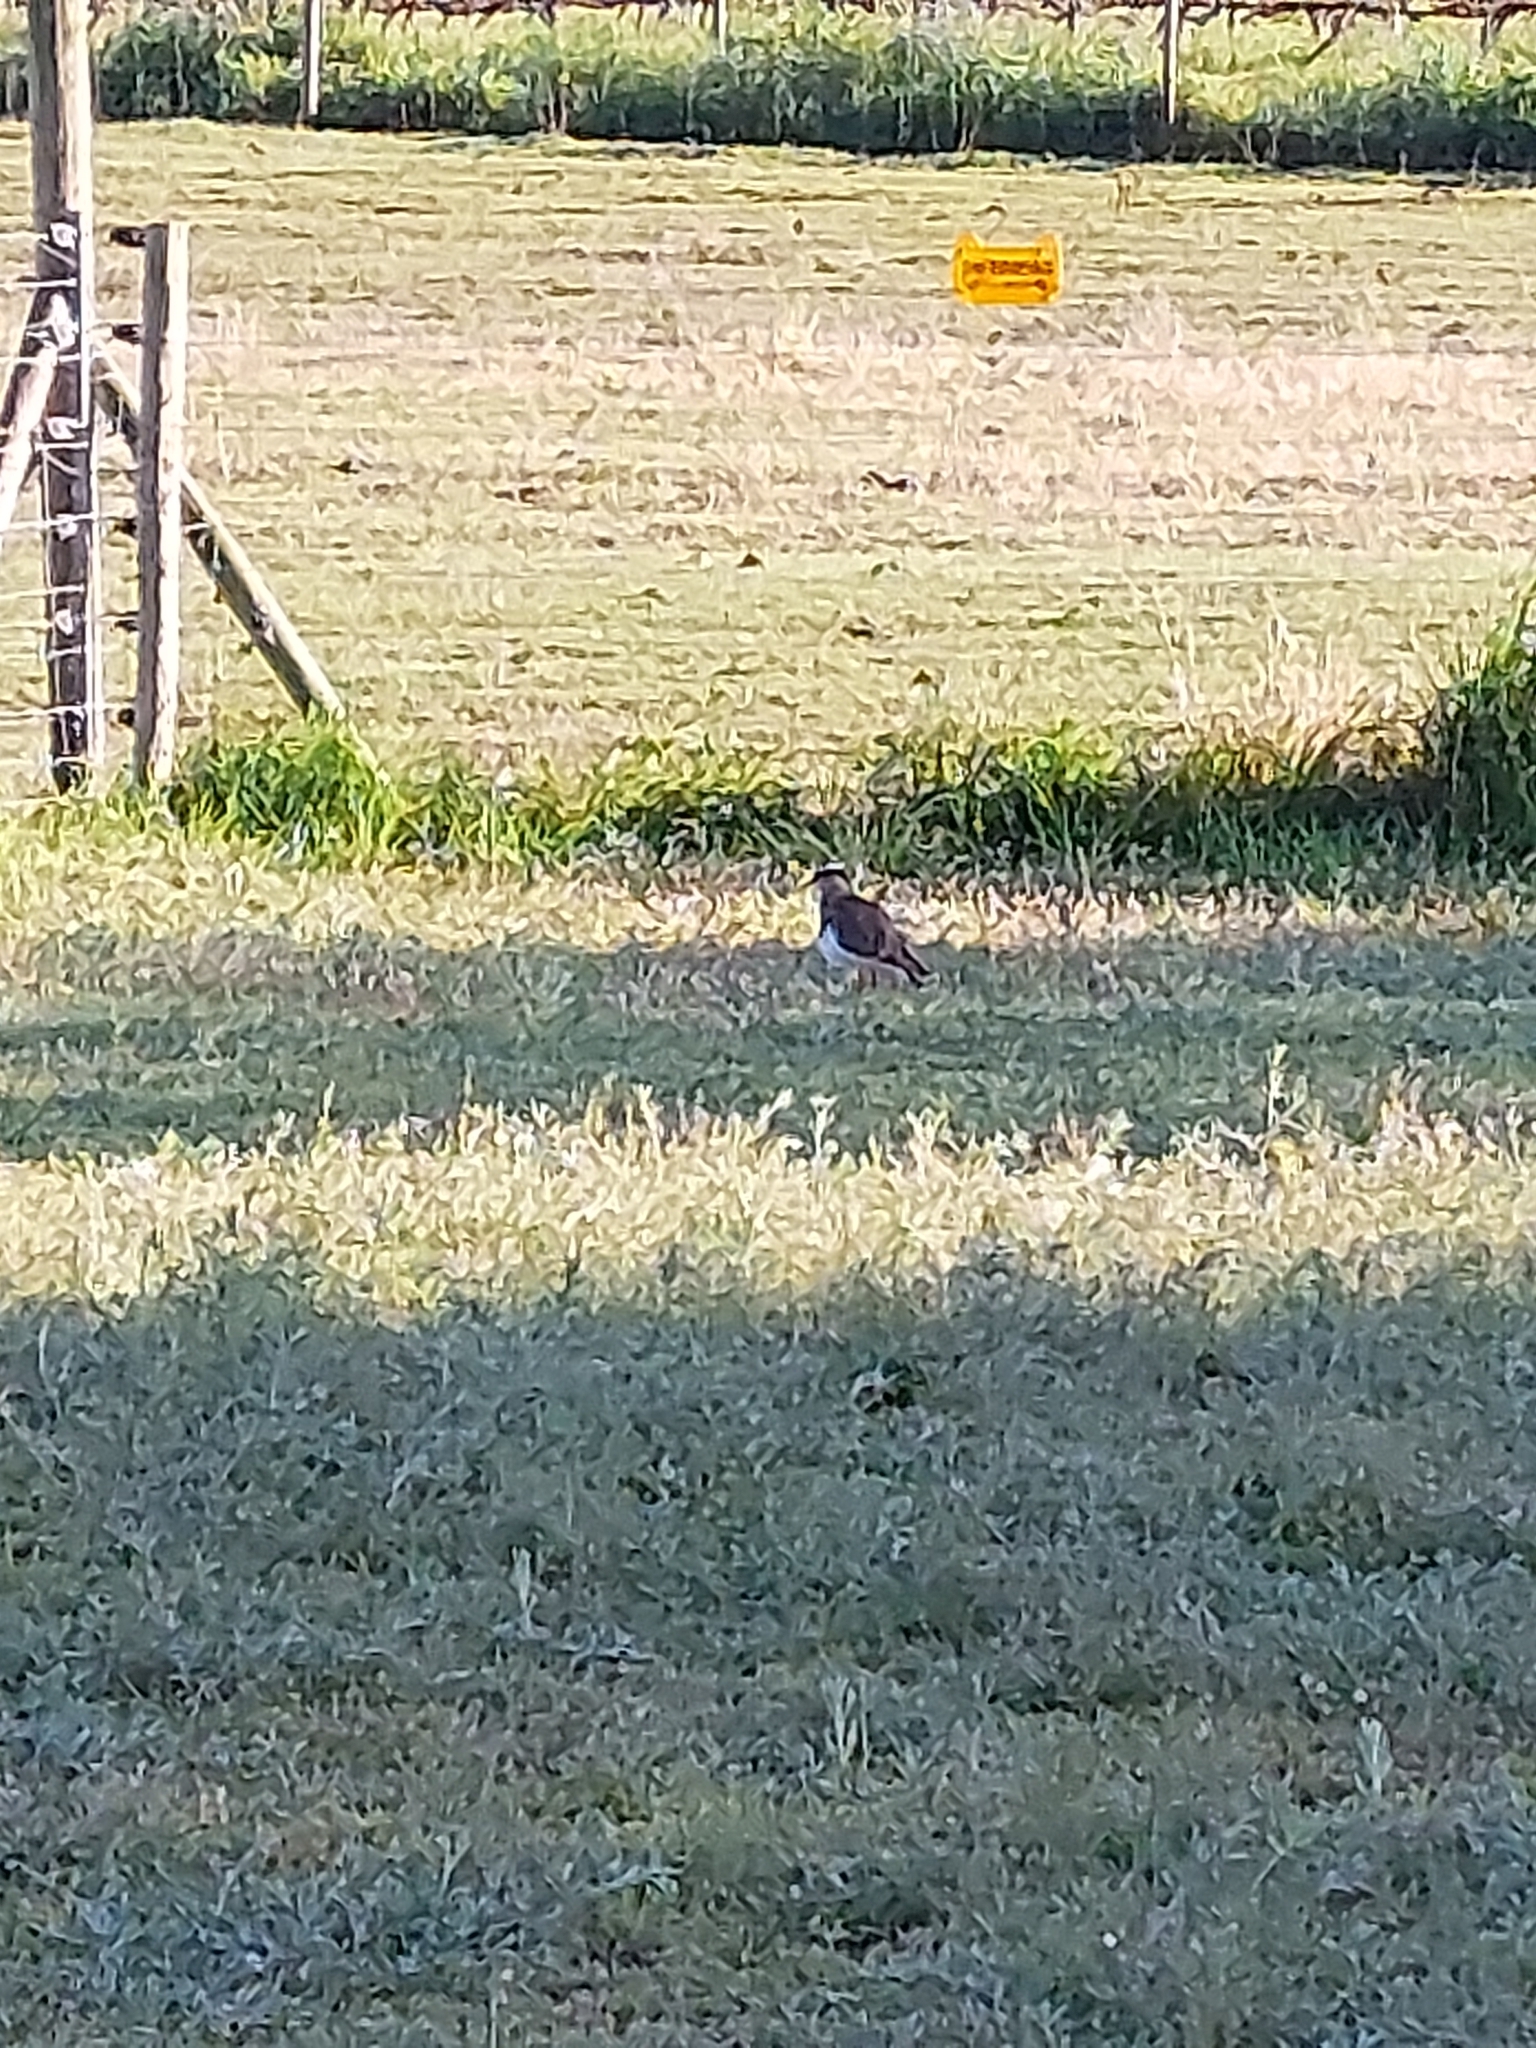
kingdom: Animalia
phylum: Chordata
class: Aves
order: Charadriiformes
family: Charadriidae
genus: Vanellus
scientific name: Vanellus coronatus
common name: Crowned lapwing
